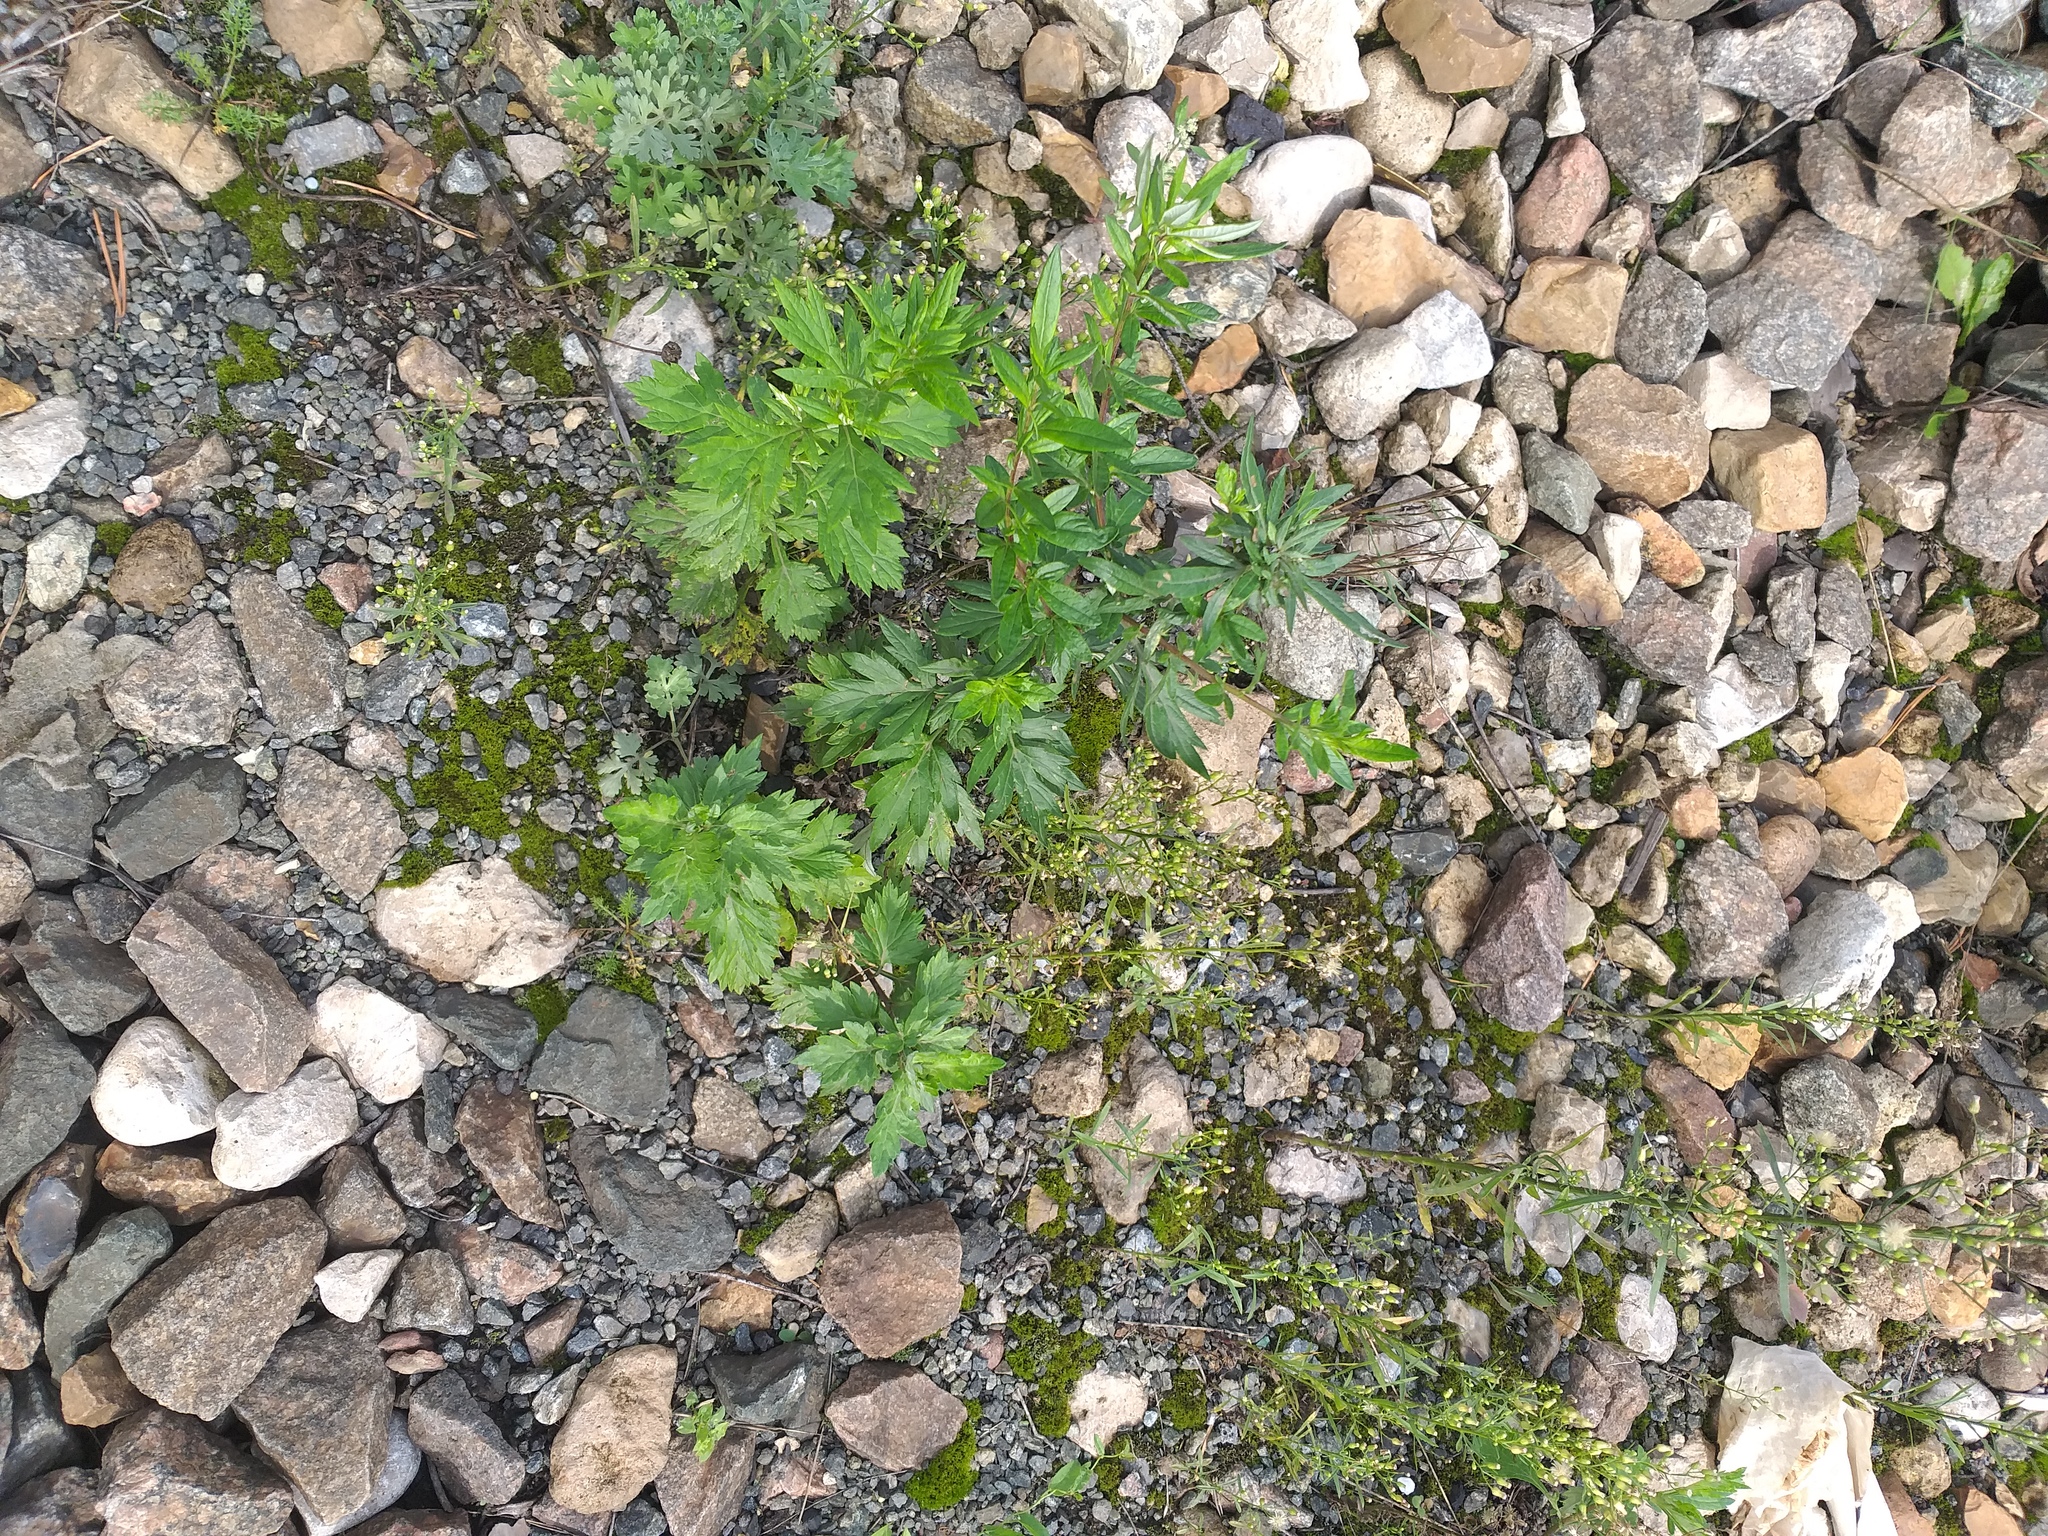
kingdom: Plantae
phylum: Tracheophyta
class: Magnoliopsida
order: Asterales
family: Asteraceae
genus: Artemisia
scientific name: Artemisia vulgaris
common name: Mugwort
